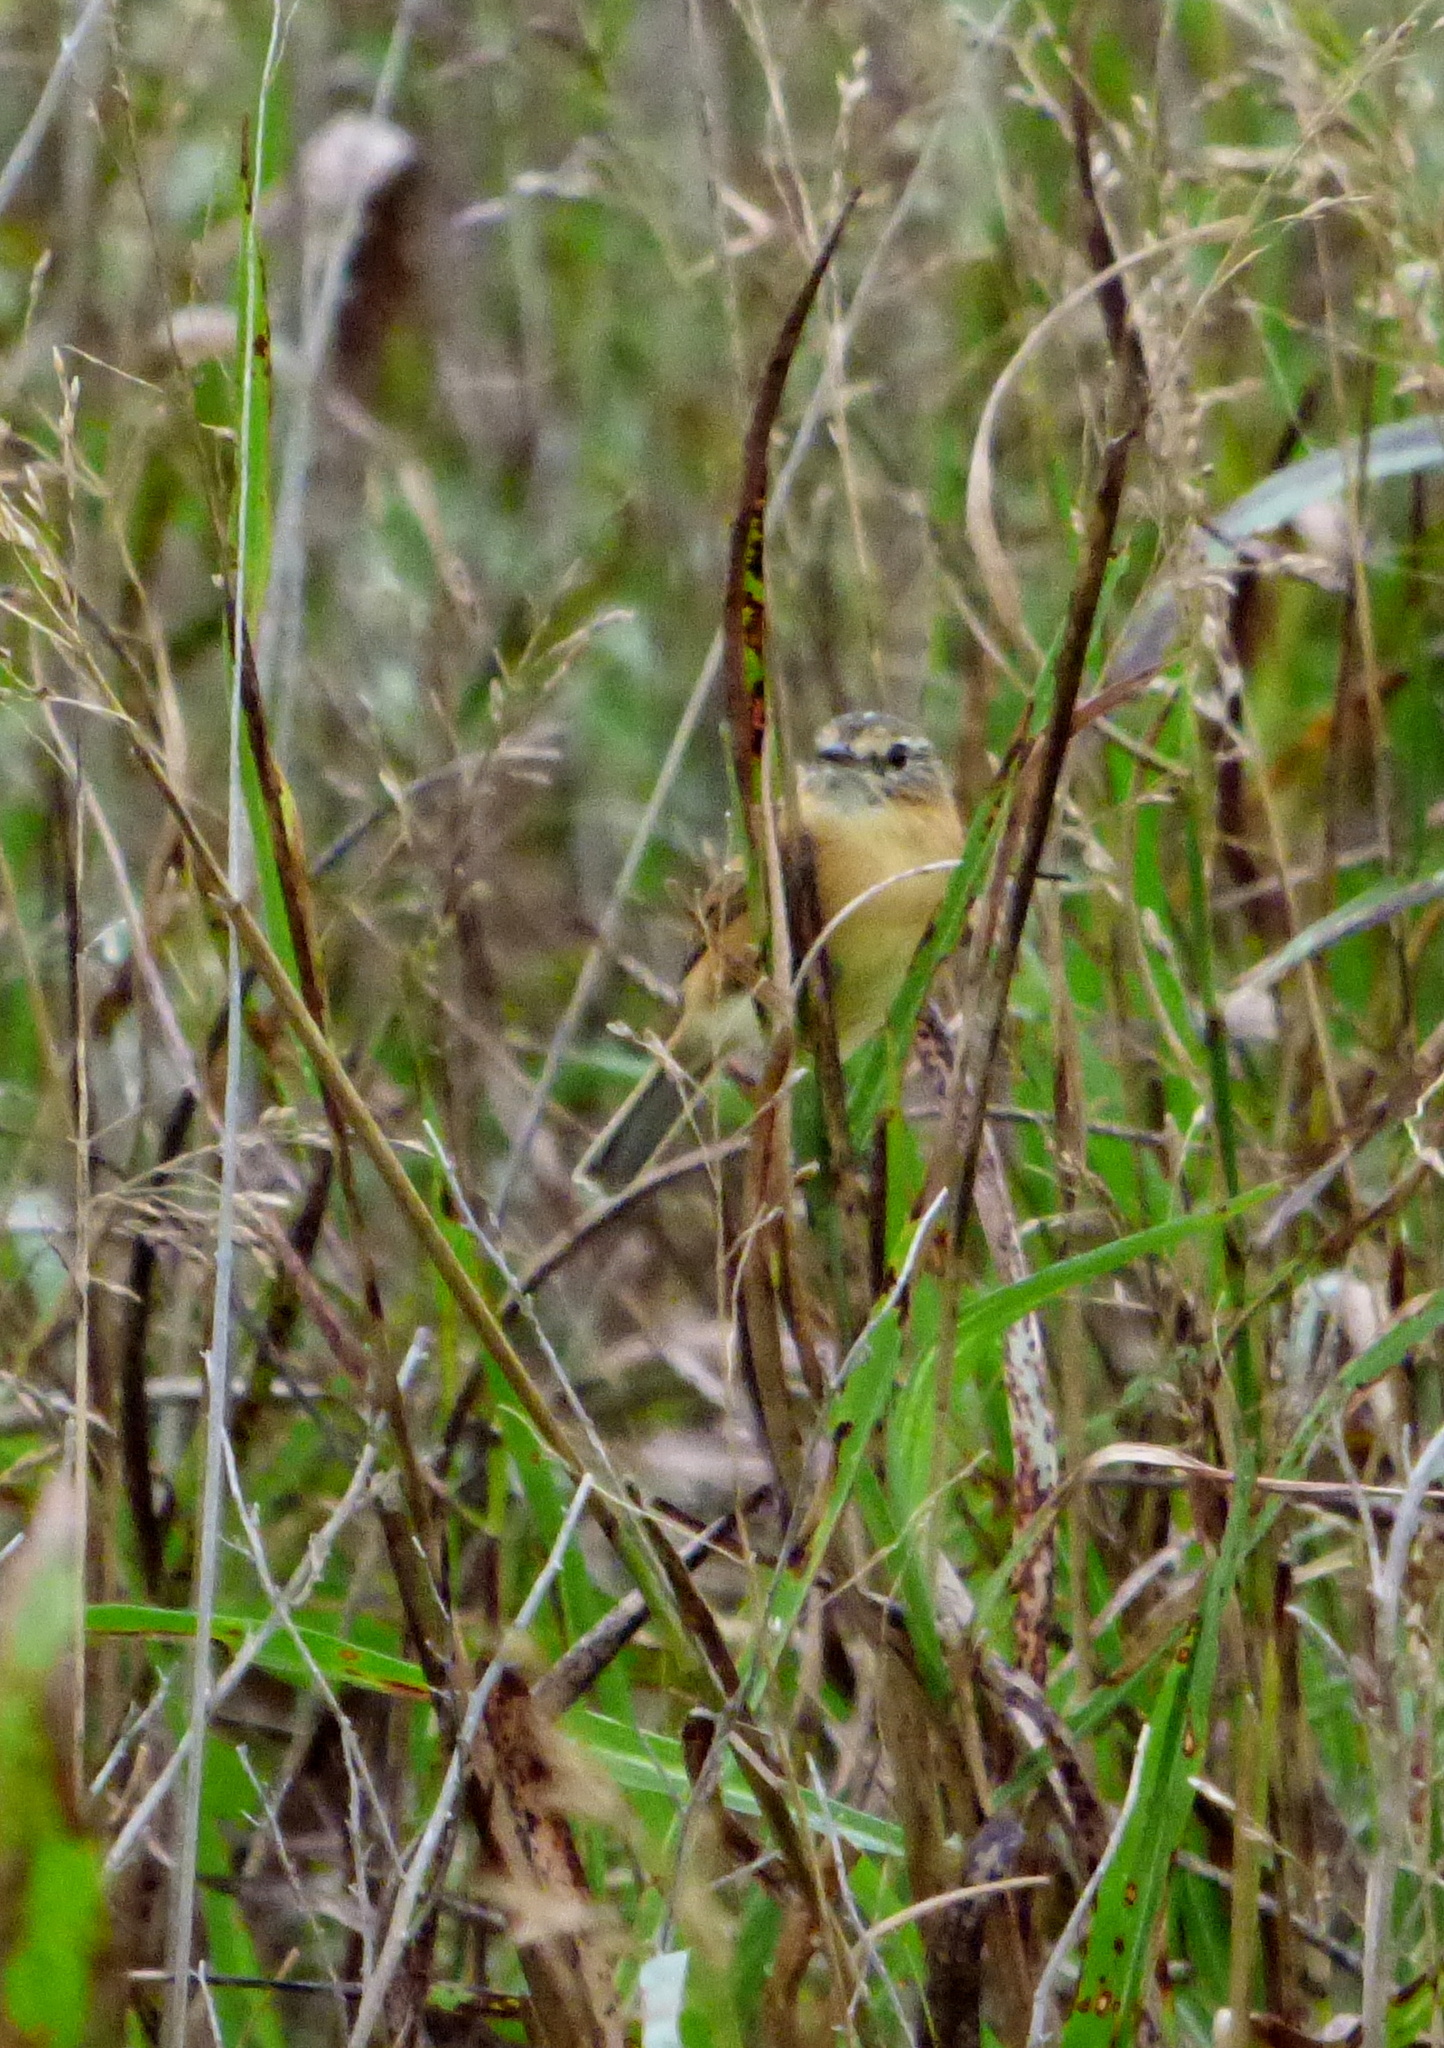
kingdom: Animalia
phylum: Chordata
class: Aves
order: Passeriformes
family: Tyrannidae
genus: Polystictus
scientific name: Polystictus pectoralis
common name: Bearded tachuri
